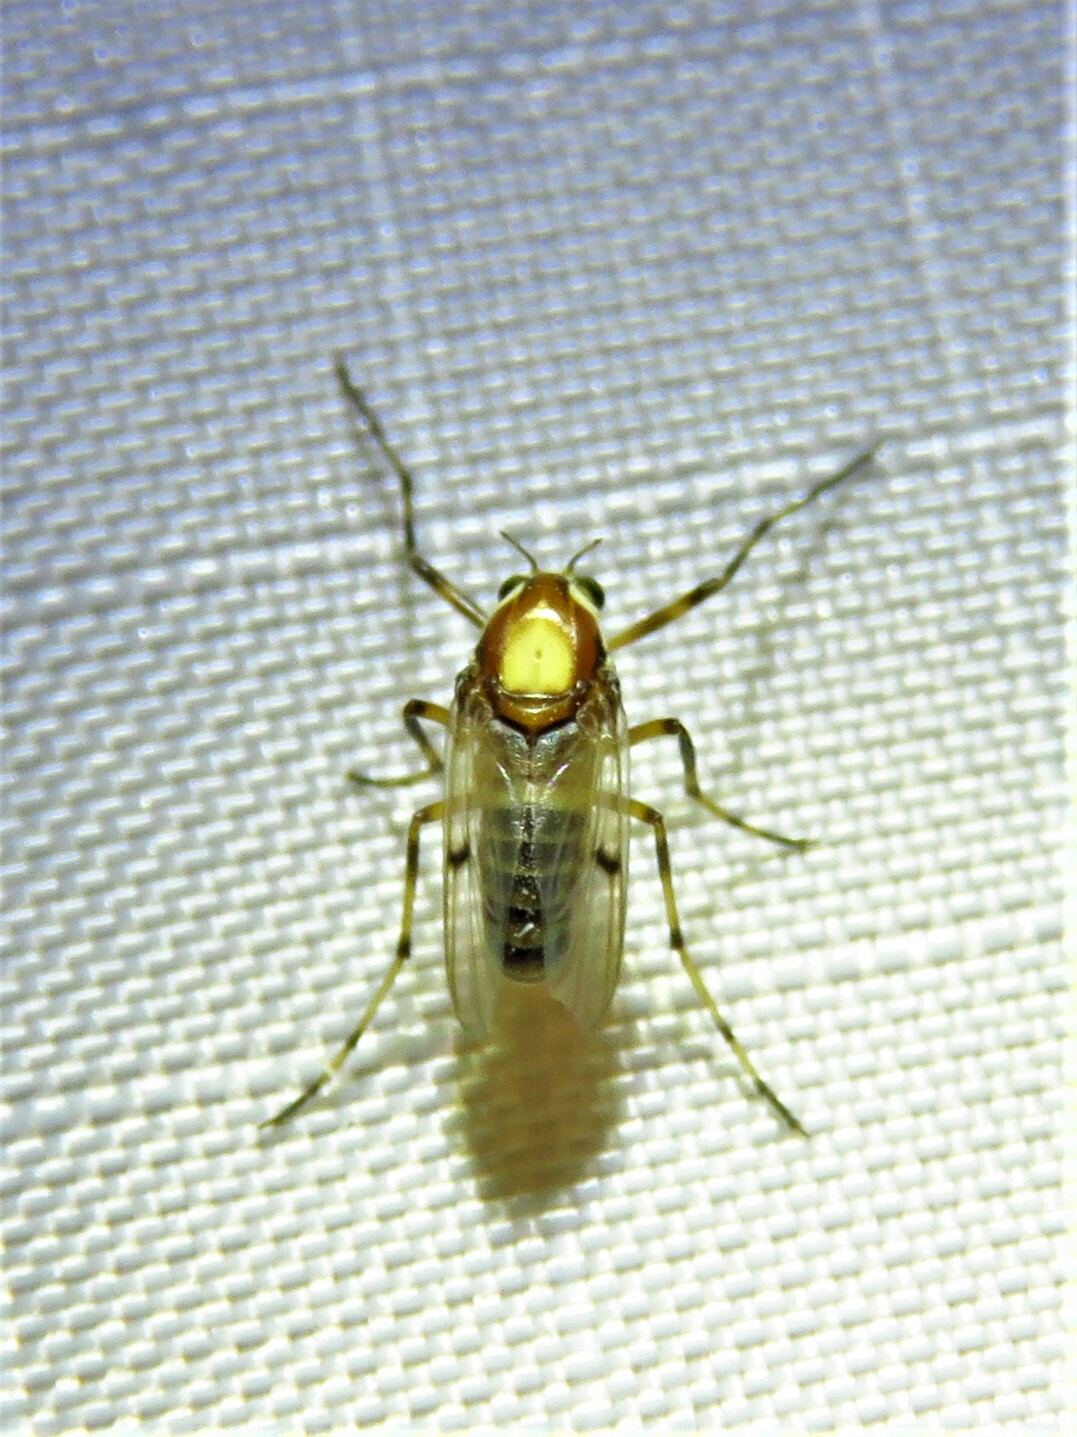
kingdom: Animalia
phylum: Arthropoda
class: Insecta
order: Diptera
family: Chironomidae
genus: Coelotanypus
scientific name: Coelotanypus tricolor
